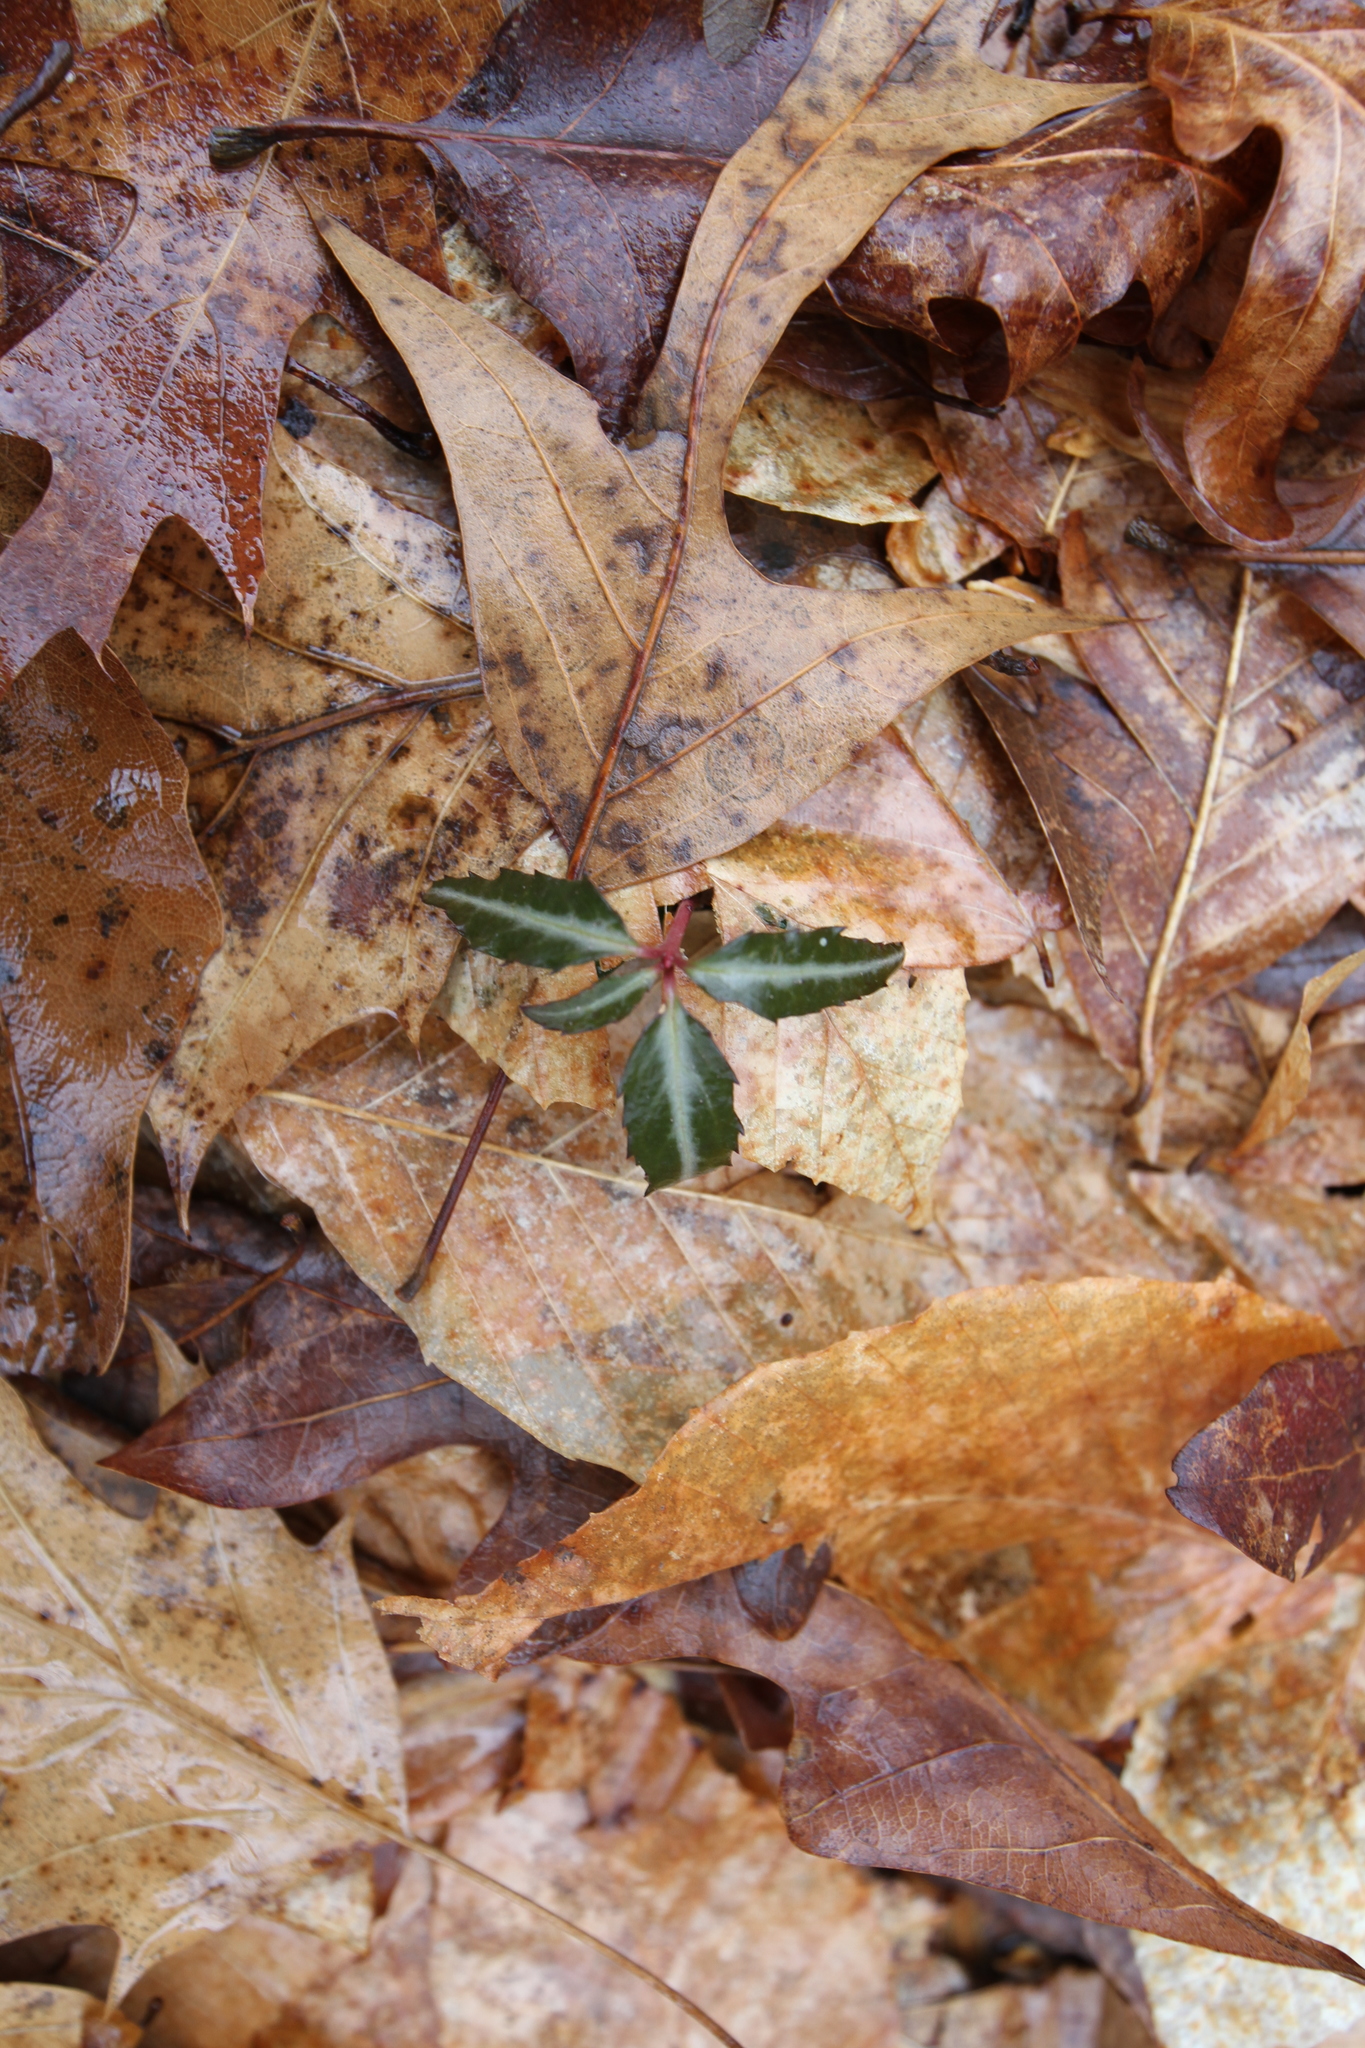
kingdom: Plantae
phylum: Tracheophyta
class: Magnoliopsida
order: Ericales
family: Ericaceae
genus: Chimaphila
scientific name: Chimaphila maculata
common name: Spotted pipsissewa
